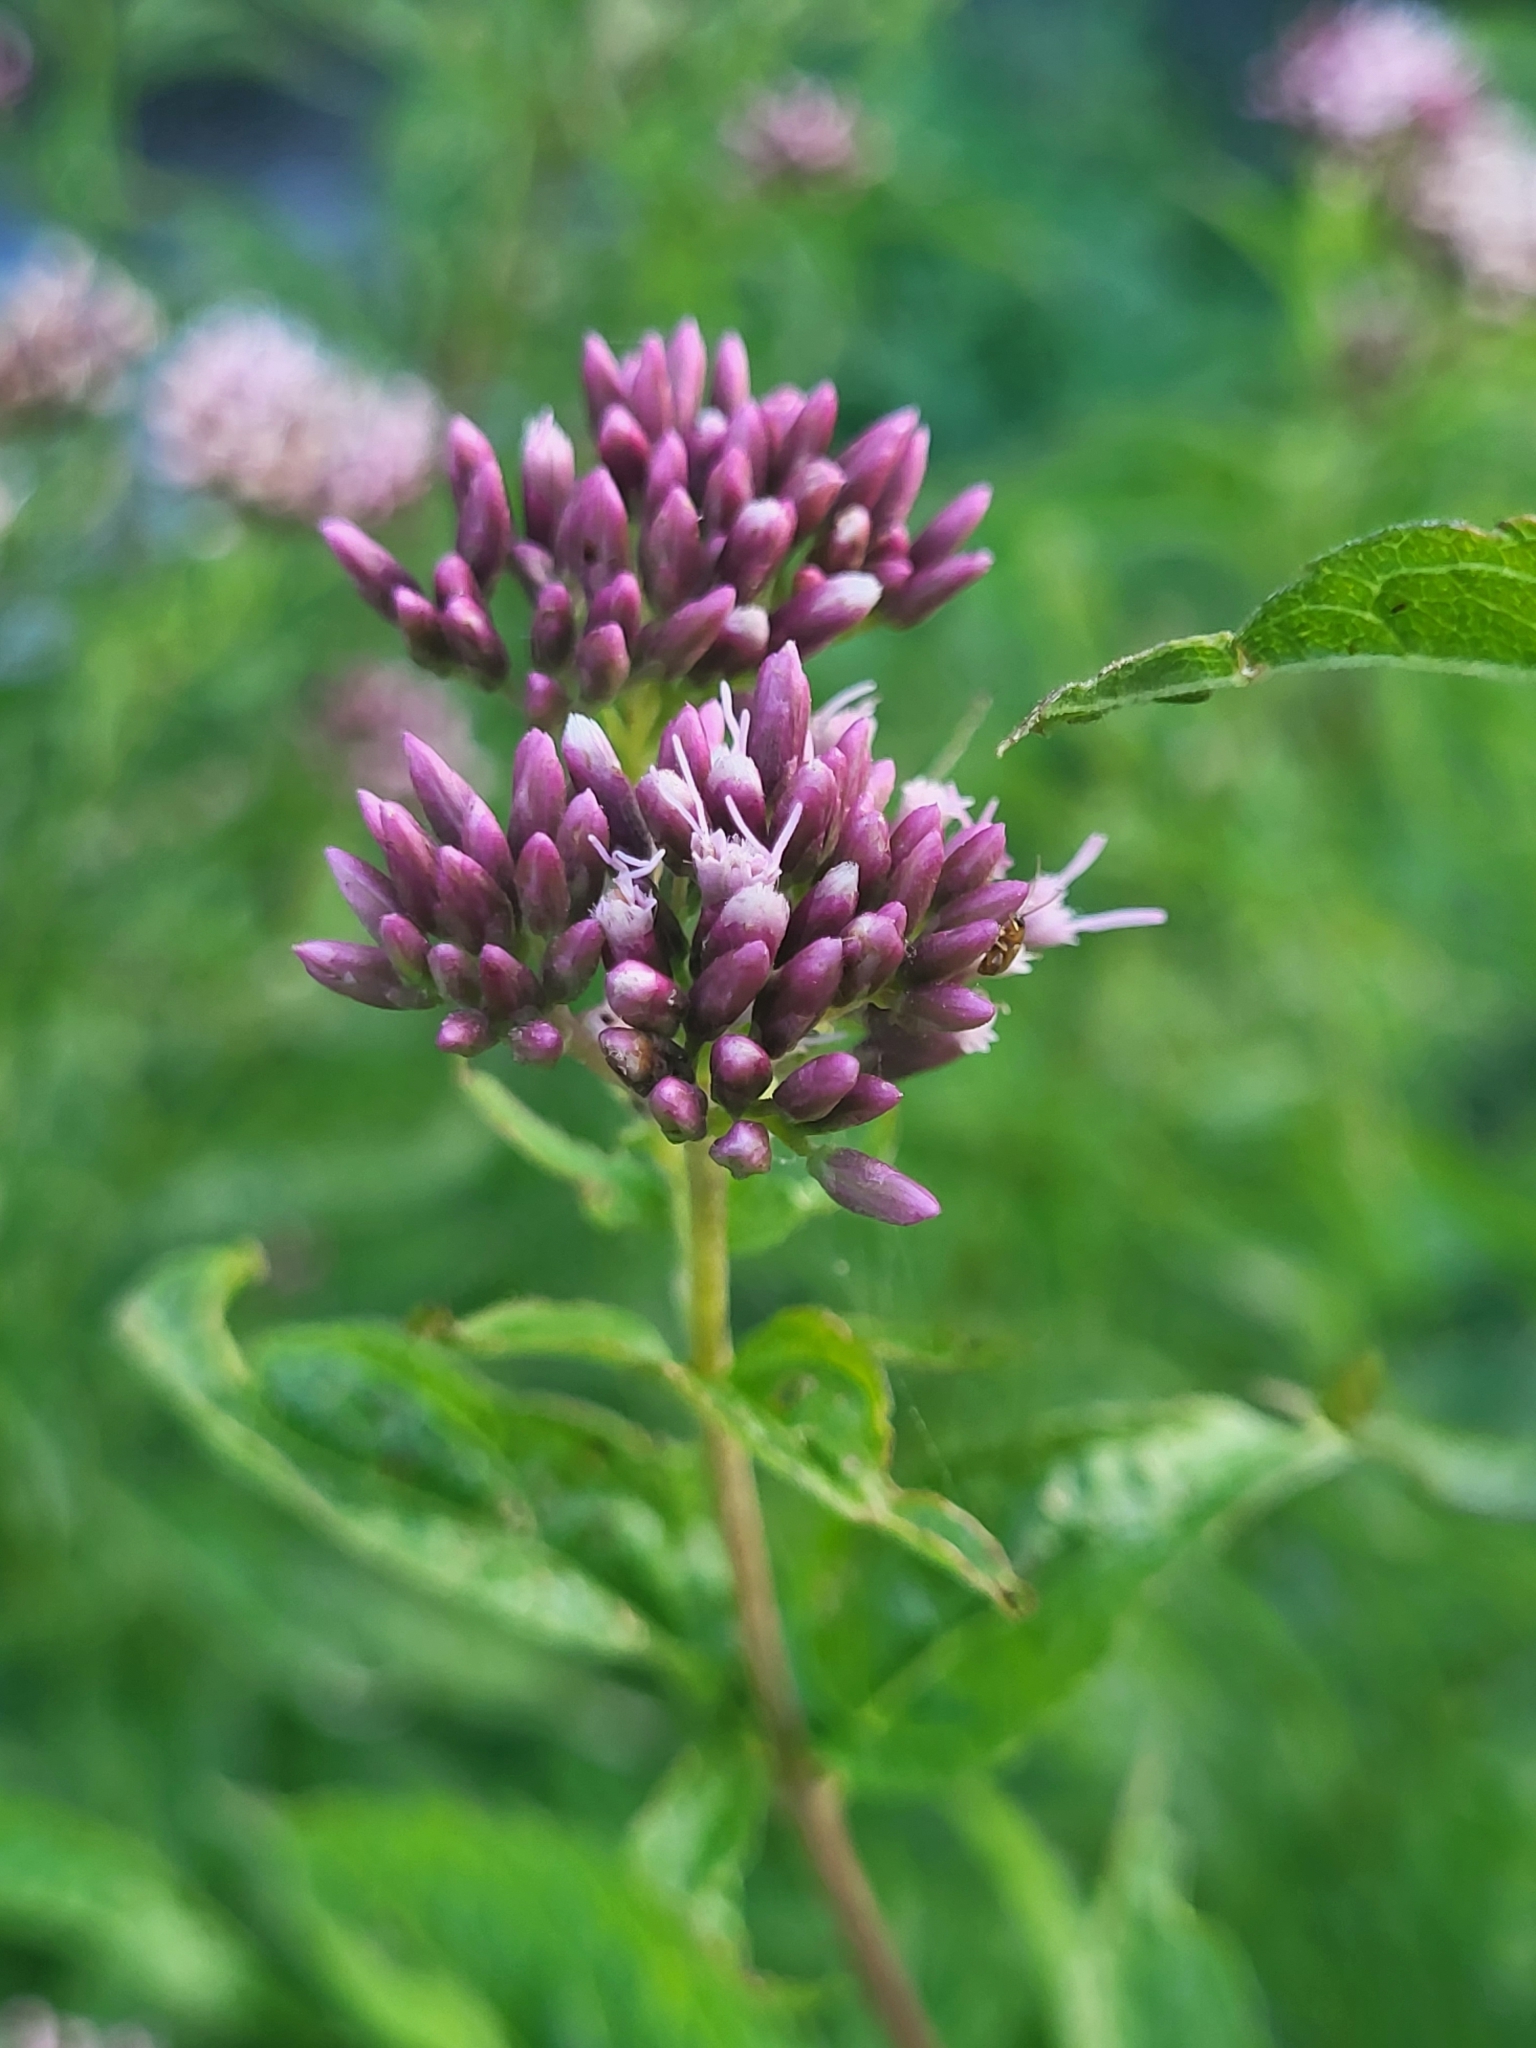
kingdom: Plantae
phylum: Tracheophyta
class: Magnoliopsida
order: Asterales
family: Asteraceae
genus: Eupatorium
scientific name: Eupatorium cannabinum
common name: Hemp-agrimony
